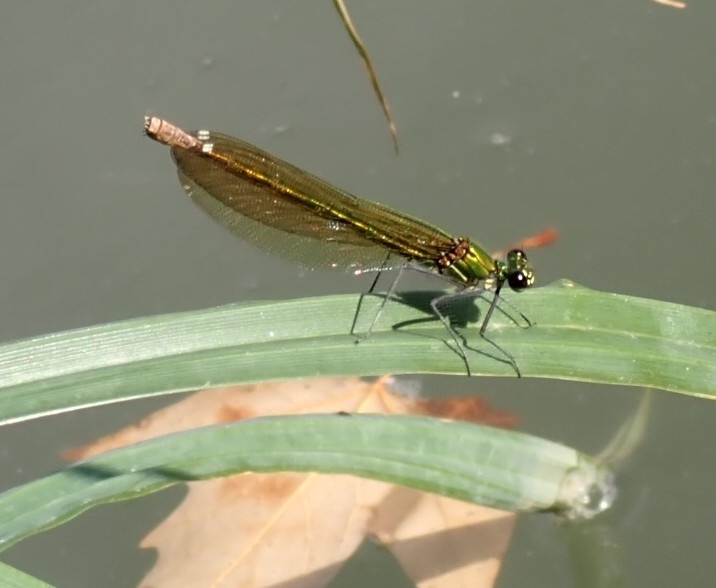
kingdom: Animalia
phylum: Arthropoda
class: Insecta
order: Odonata
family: Calopterygidae
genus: Calopteryx
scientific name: Calopteryx xanthostoma
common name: Western demoiselle
